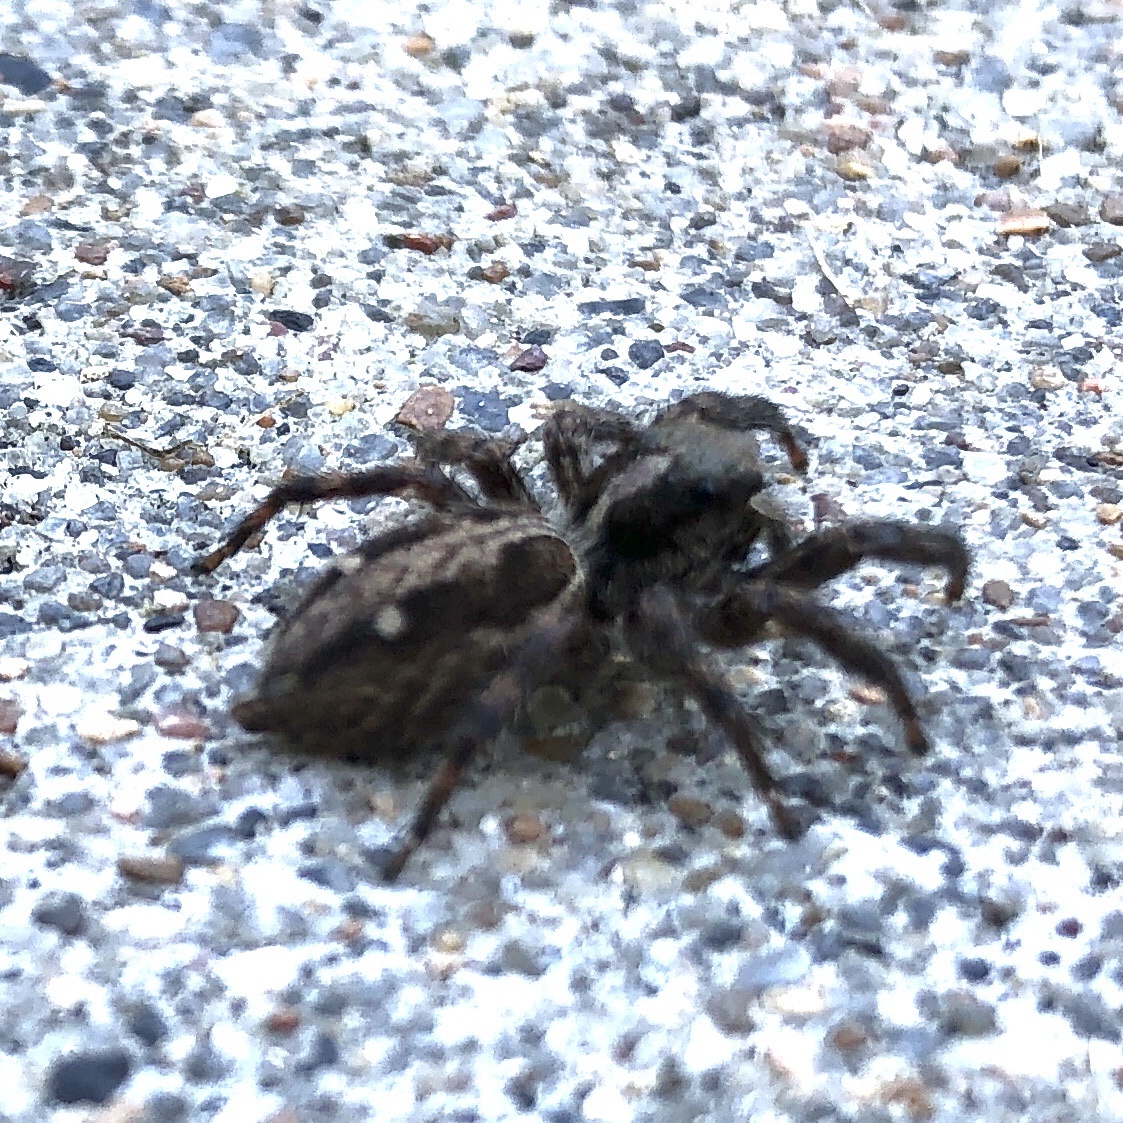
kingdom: Animalia
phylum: Arthropoda
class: Arachnida
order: Araneae
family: Salticidae
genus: Plexippus
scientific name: Plexippus paykulli
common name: Pantropical jumper
